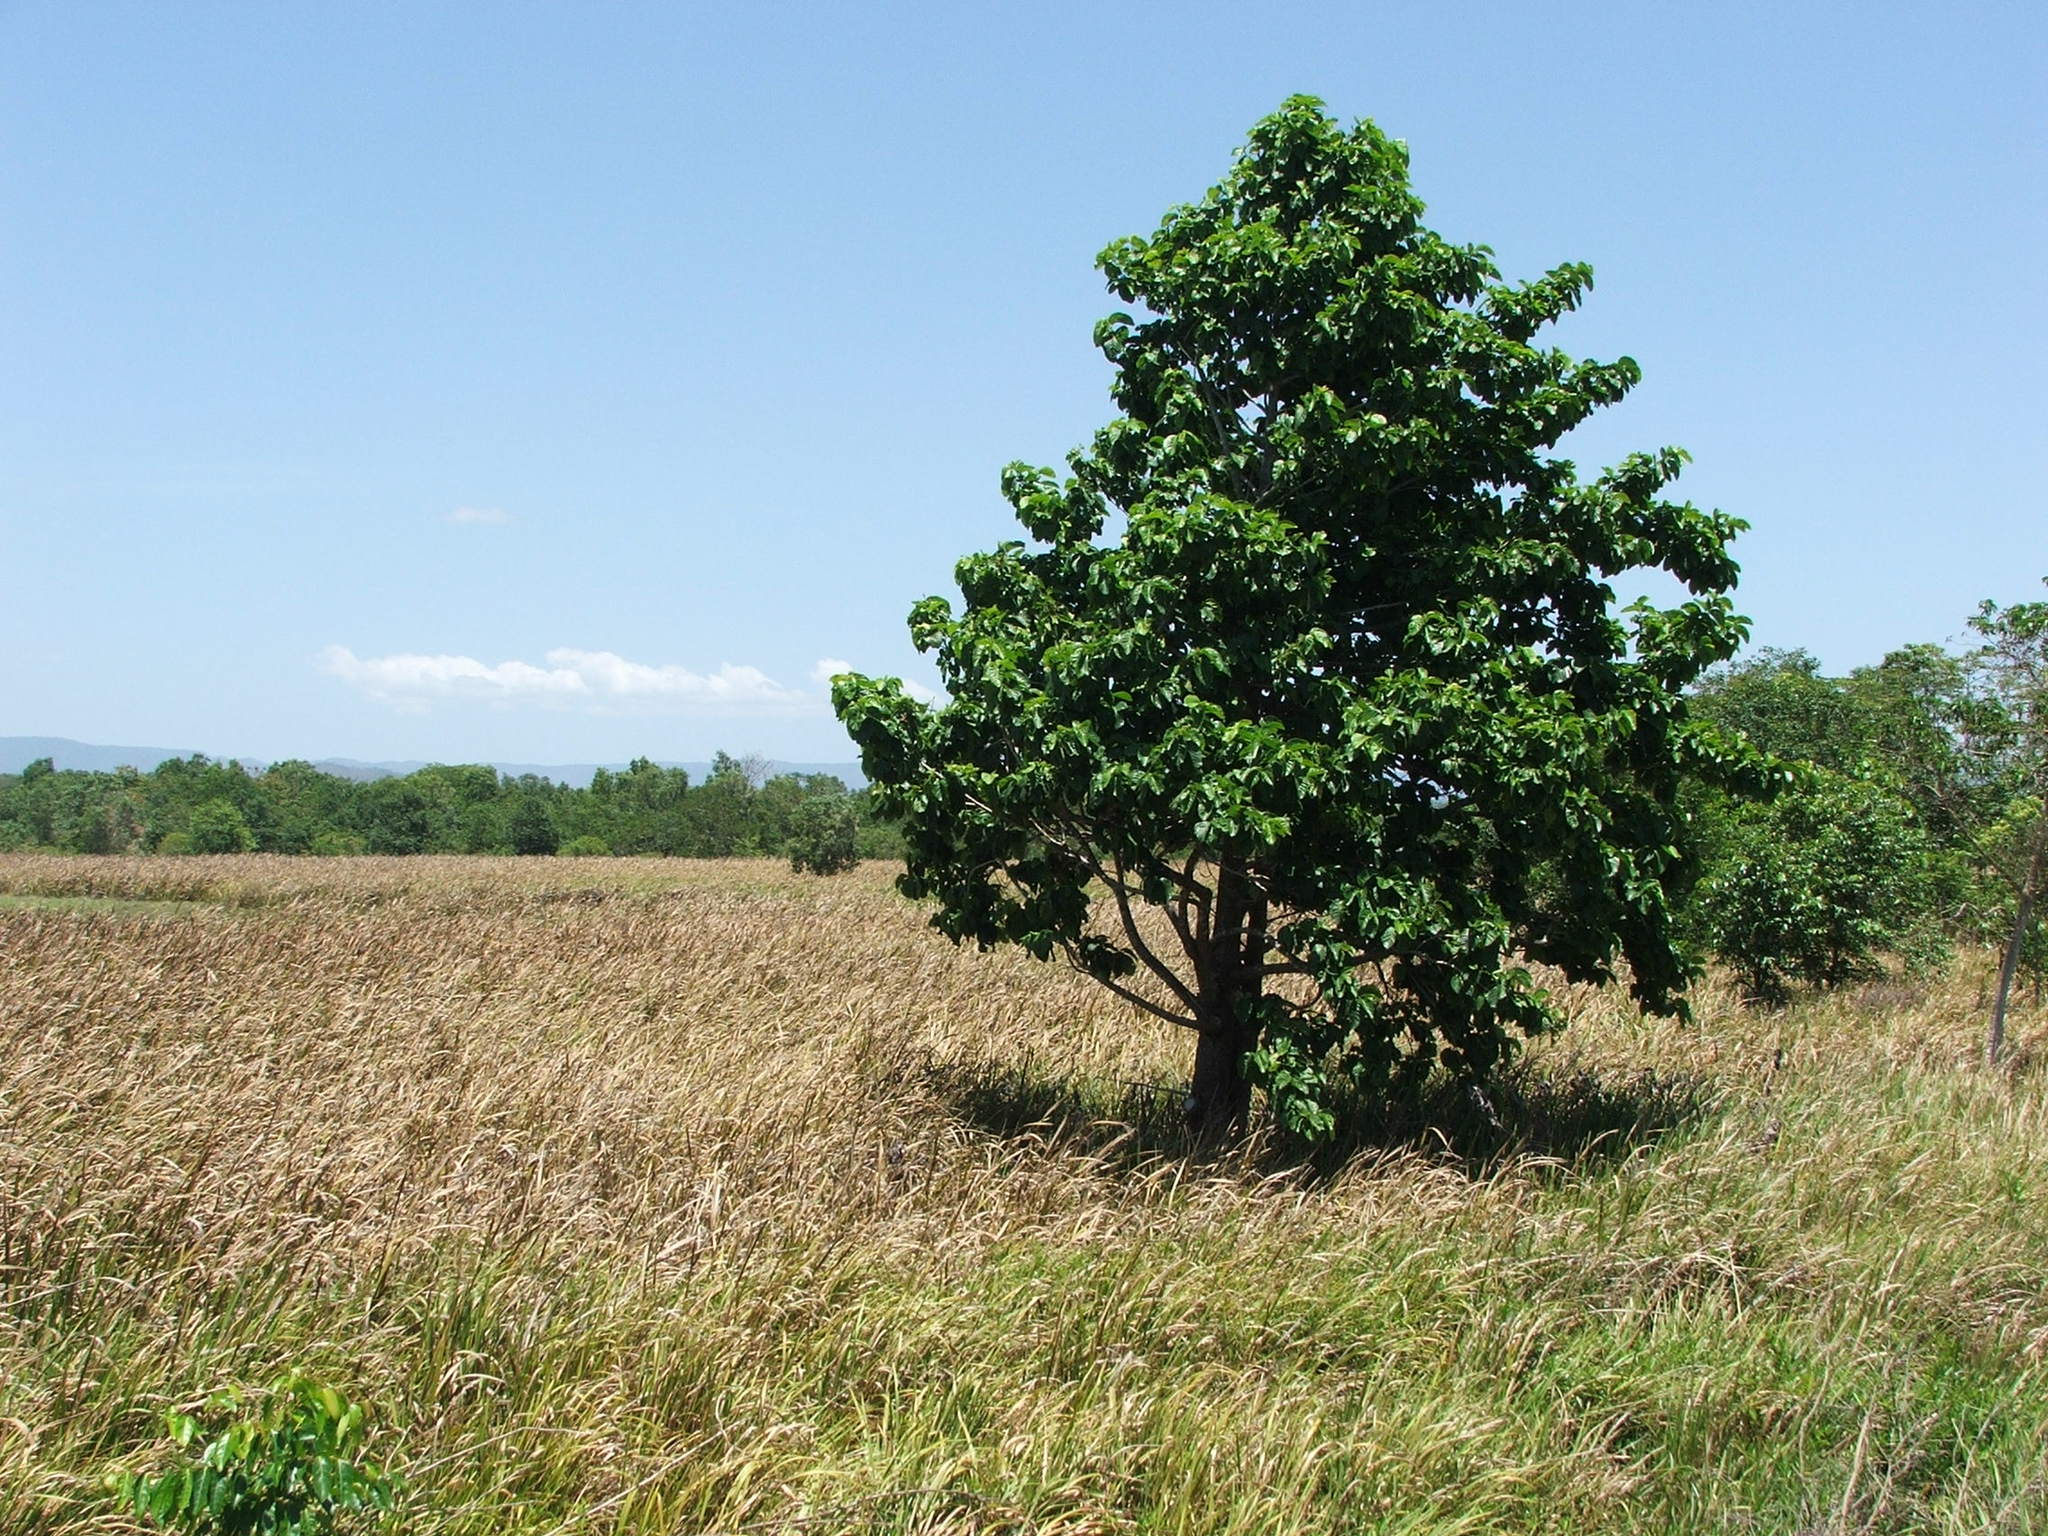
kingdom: Plantae
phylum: Tracheophyta
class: Magnoliopsida
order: Gentianales
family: Rubiaceae
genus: Nauclea
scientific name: Nauclea orientalis
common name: Leichhardt-pine
